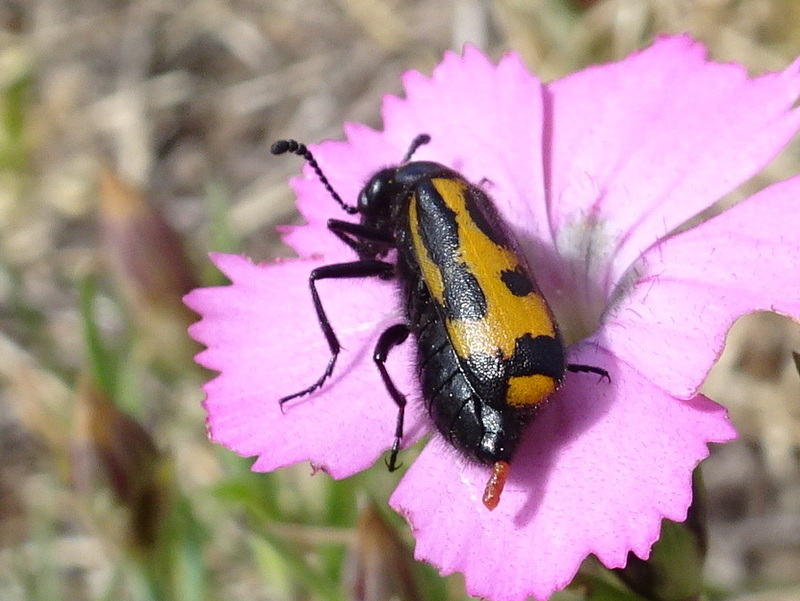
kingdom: Animalia
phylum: Arthropoda
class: Insecta
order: Coleoptera
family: Meloidae
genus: Mylabris
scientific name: Mylabris flexuosa
